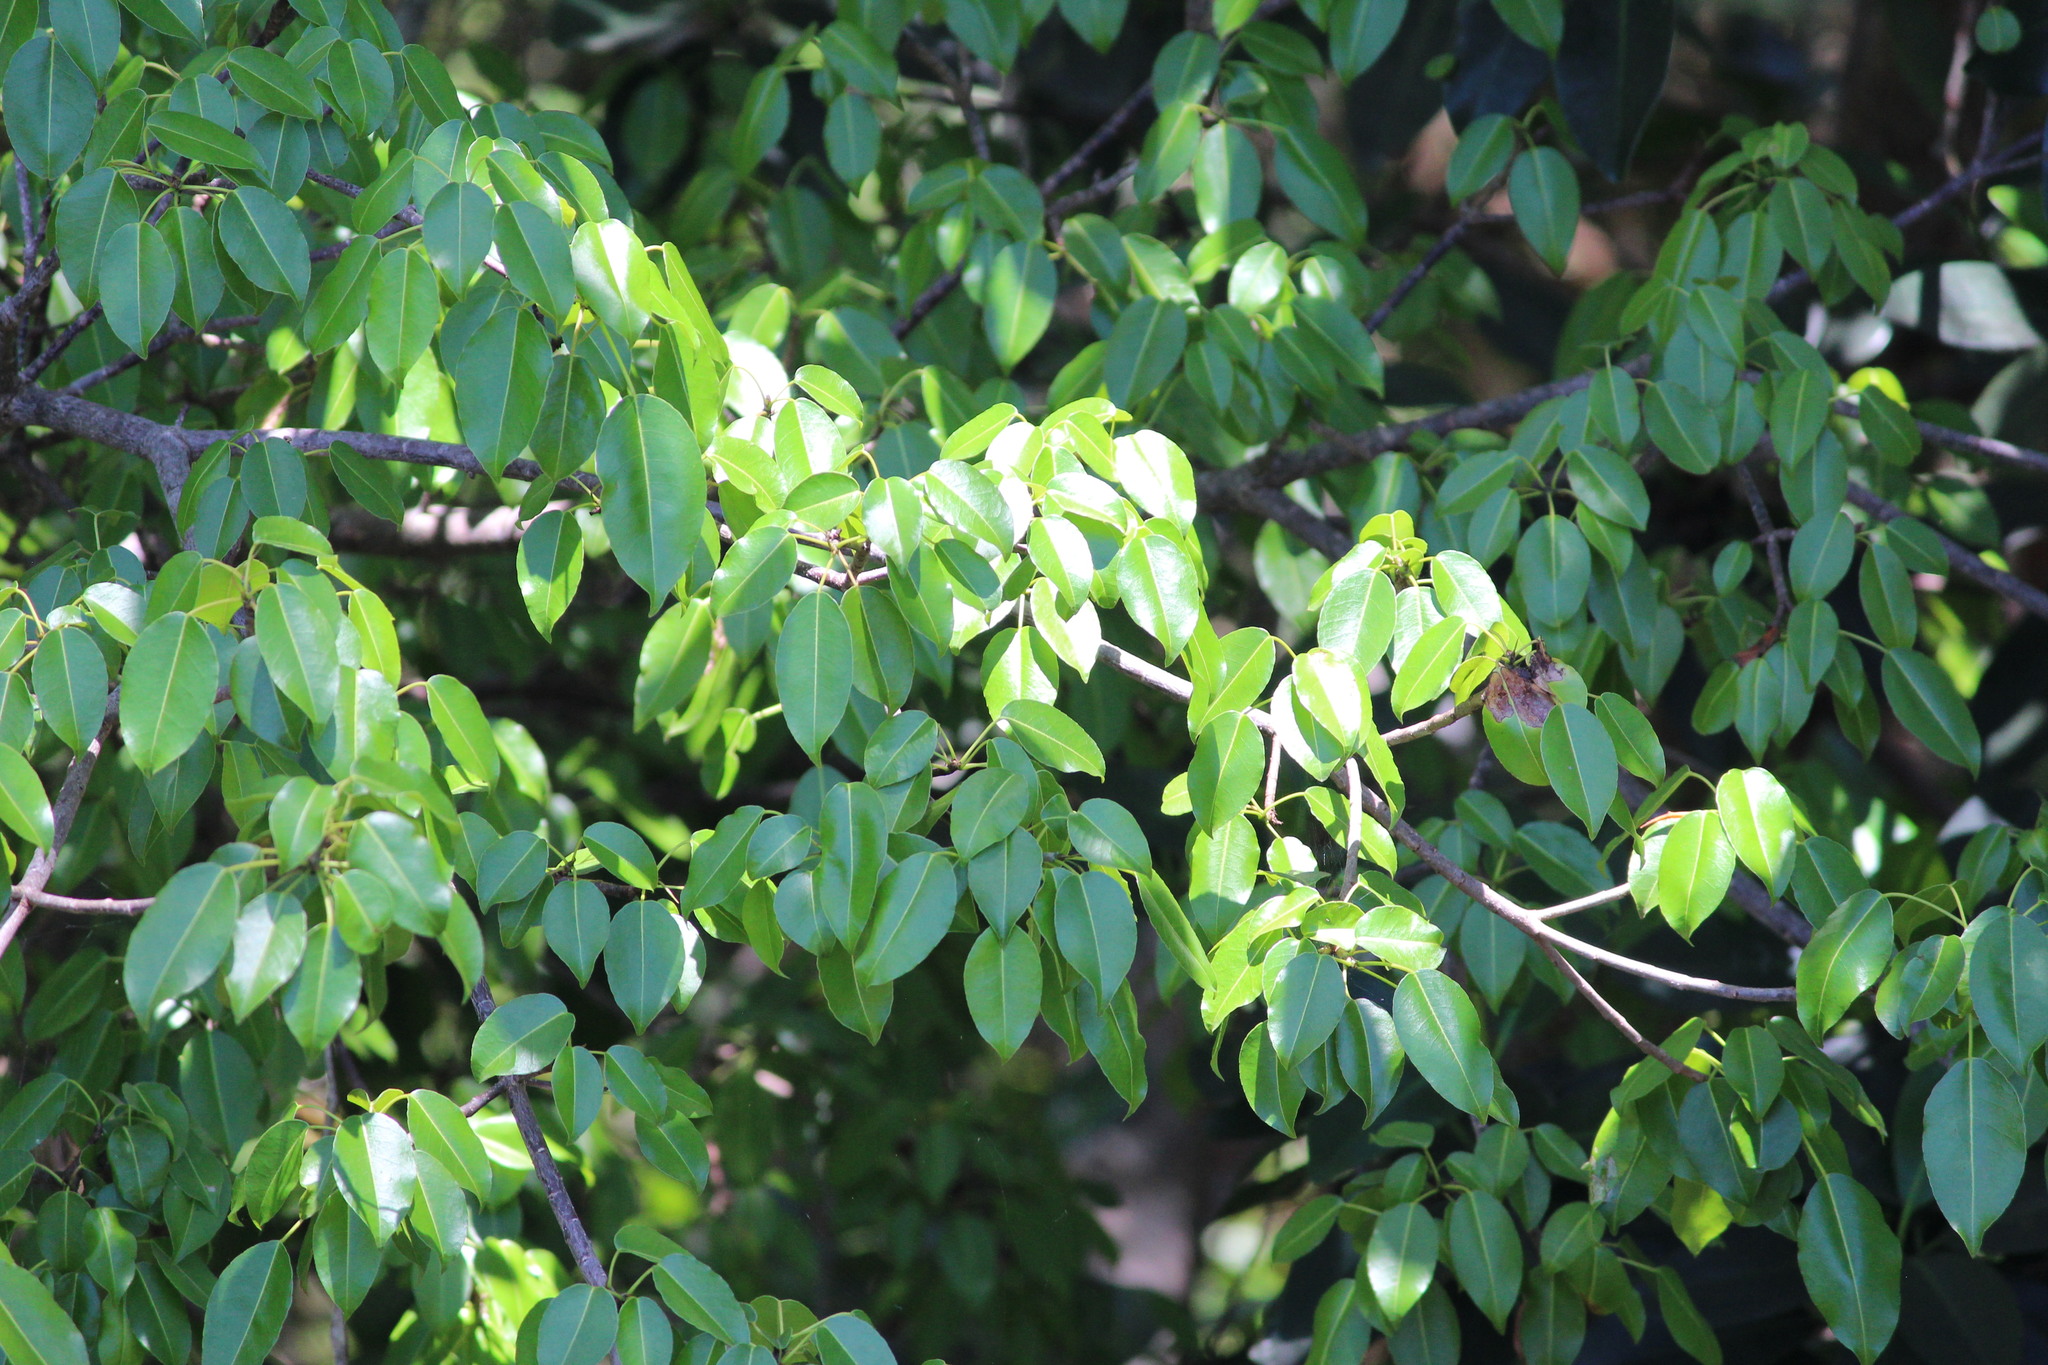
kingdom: Plantae
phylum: Tracheophyta
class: Magnoliopsida
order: Malpighiales
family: Euphorbiaceae
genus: Hippomane
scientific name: Hippomane mancinella
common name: Manchineel
